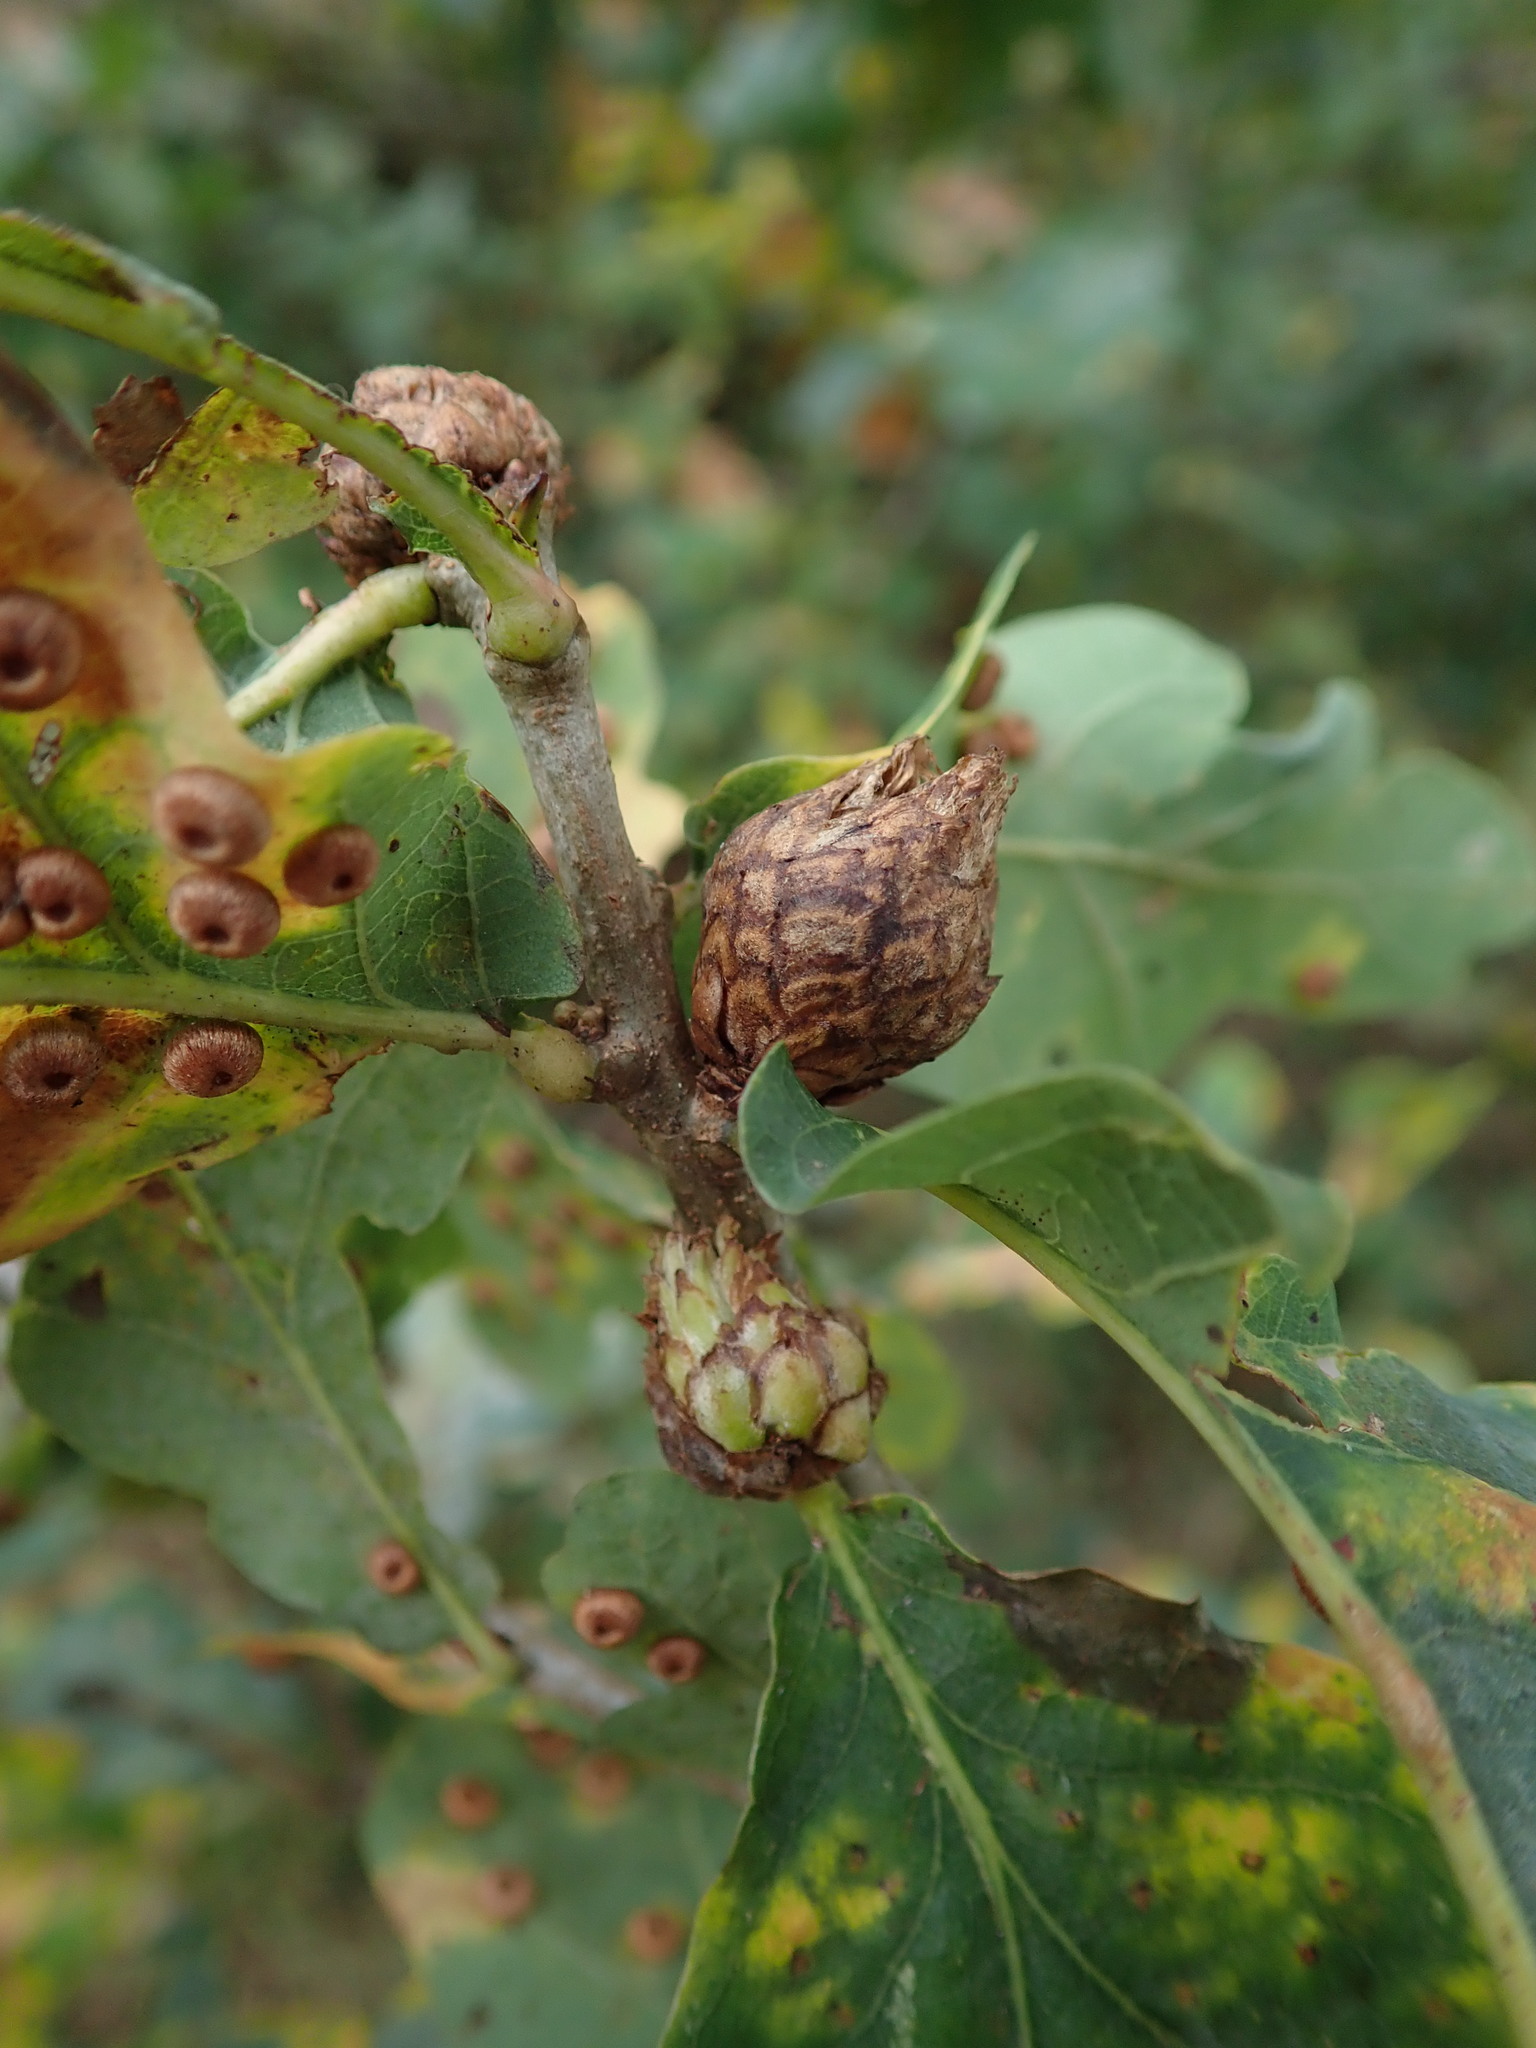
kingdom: Animalia
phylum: Arthropoda
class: Insecta
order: Hymenoptera
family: Cynipidae
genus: Andricus
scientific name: Andricus foecundatrix
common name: Artichoke gall
